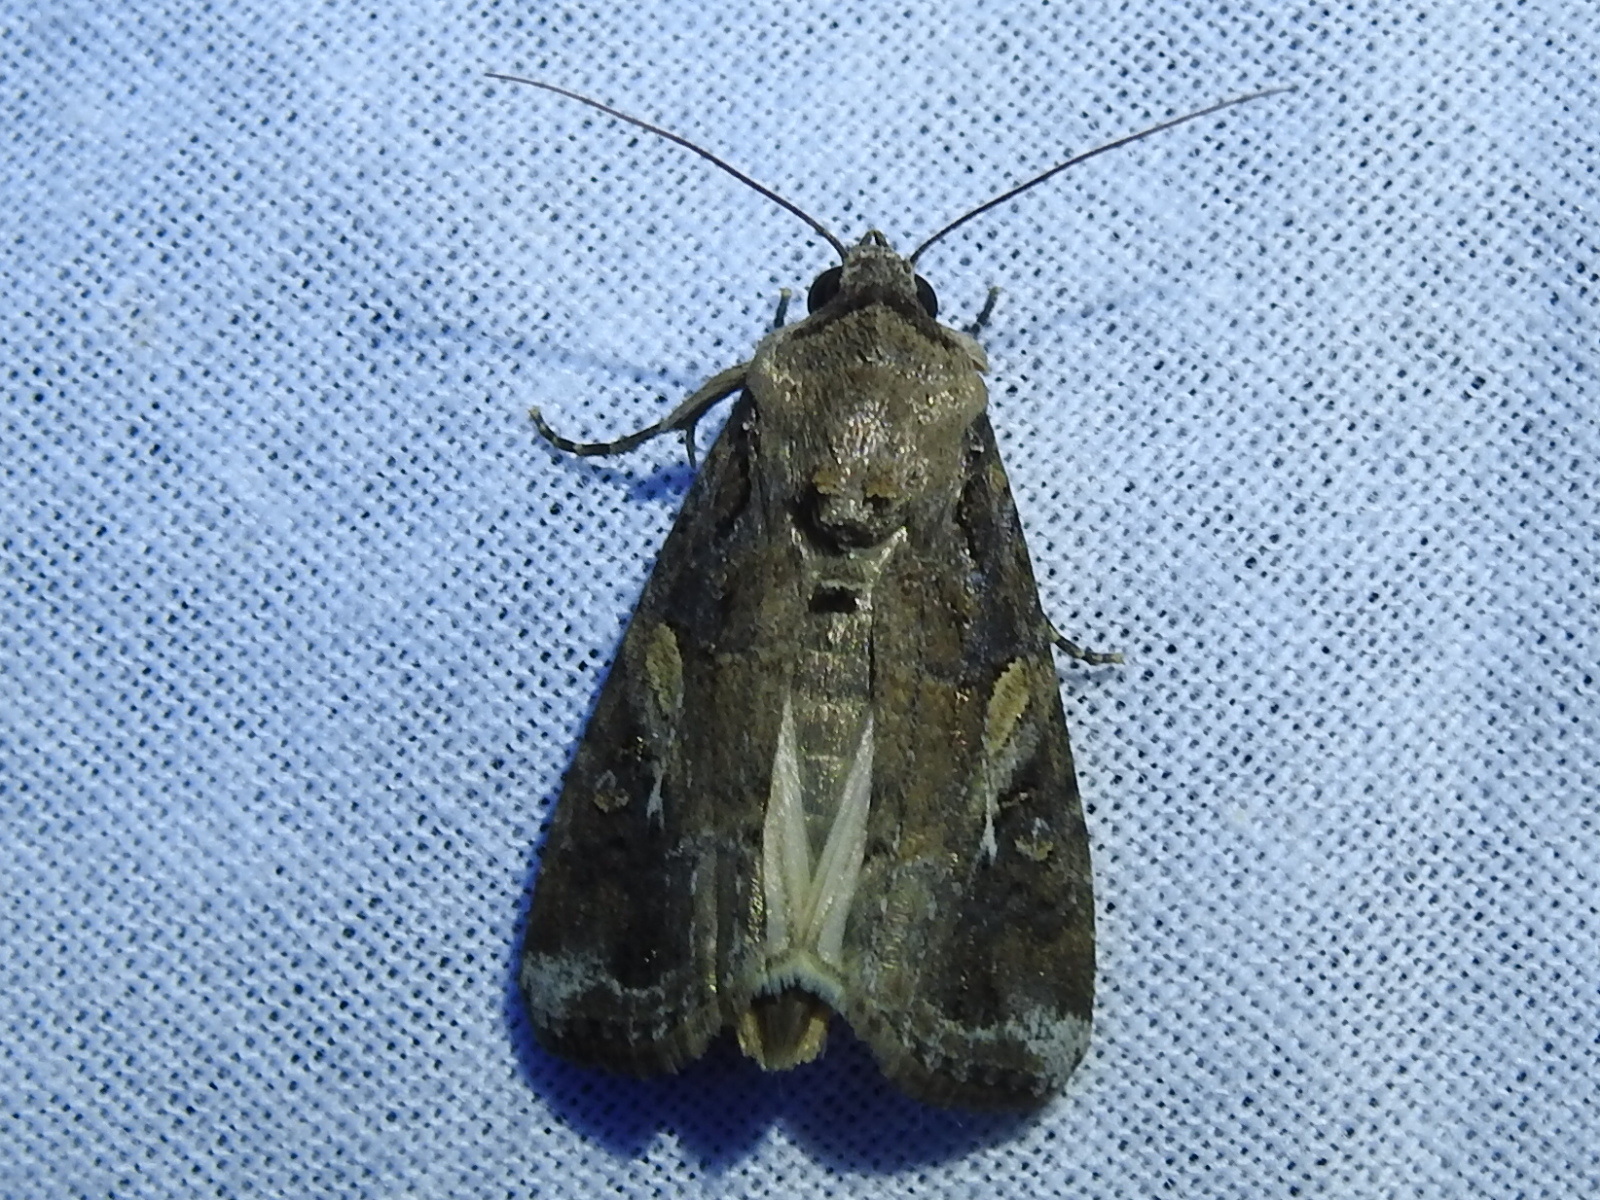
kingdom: Animalia
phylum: Arthropoda
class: Insecta
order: Lepidoptera
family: Noctuidae
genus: Spodoptera
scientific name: Spodoptera frugiperda
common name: Fall armyworm
